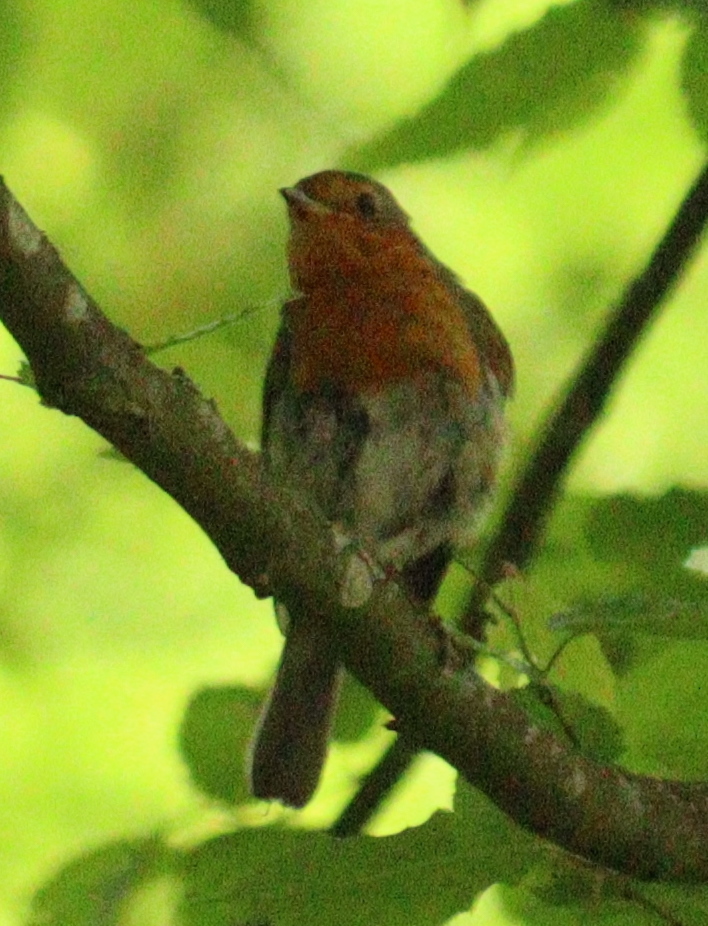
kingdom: Animalia
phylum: Chordata
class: Aves
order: Passeriformes
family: Muscicapidae
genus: Erithacus
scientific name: Erithacus rubecula
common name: European robin
